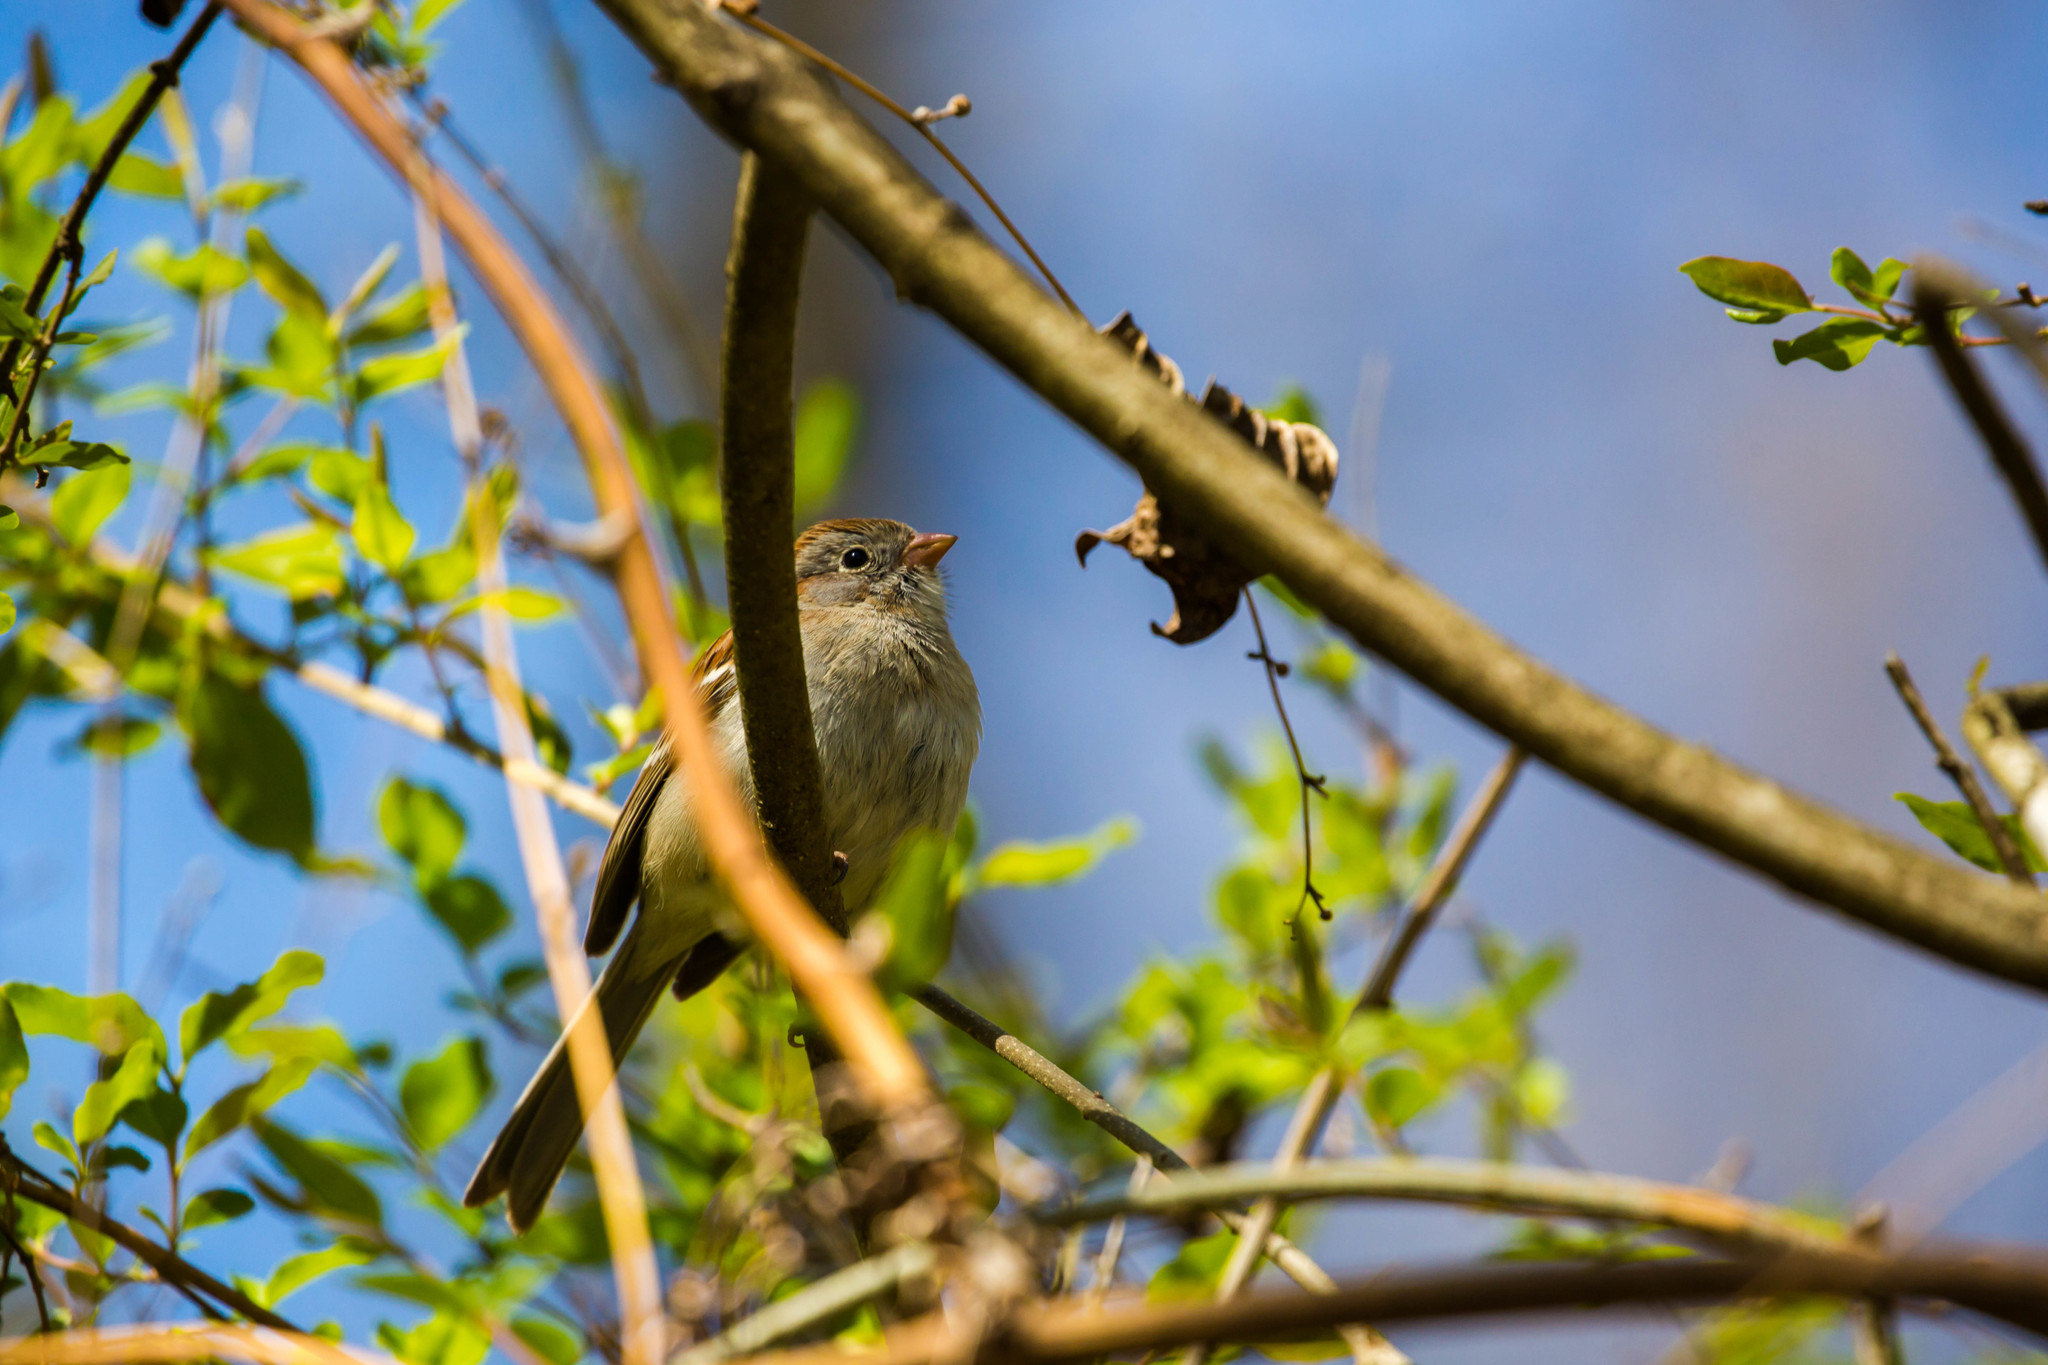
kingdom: Animalia
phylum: Chordata
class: Aves
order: Passeriformes
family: Passerellidae
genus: Spizella
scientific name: Spizella pusilla
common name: Field sparrow
